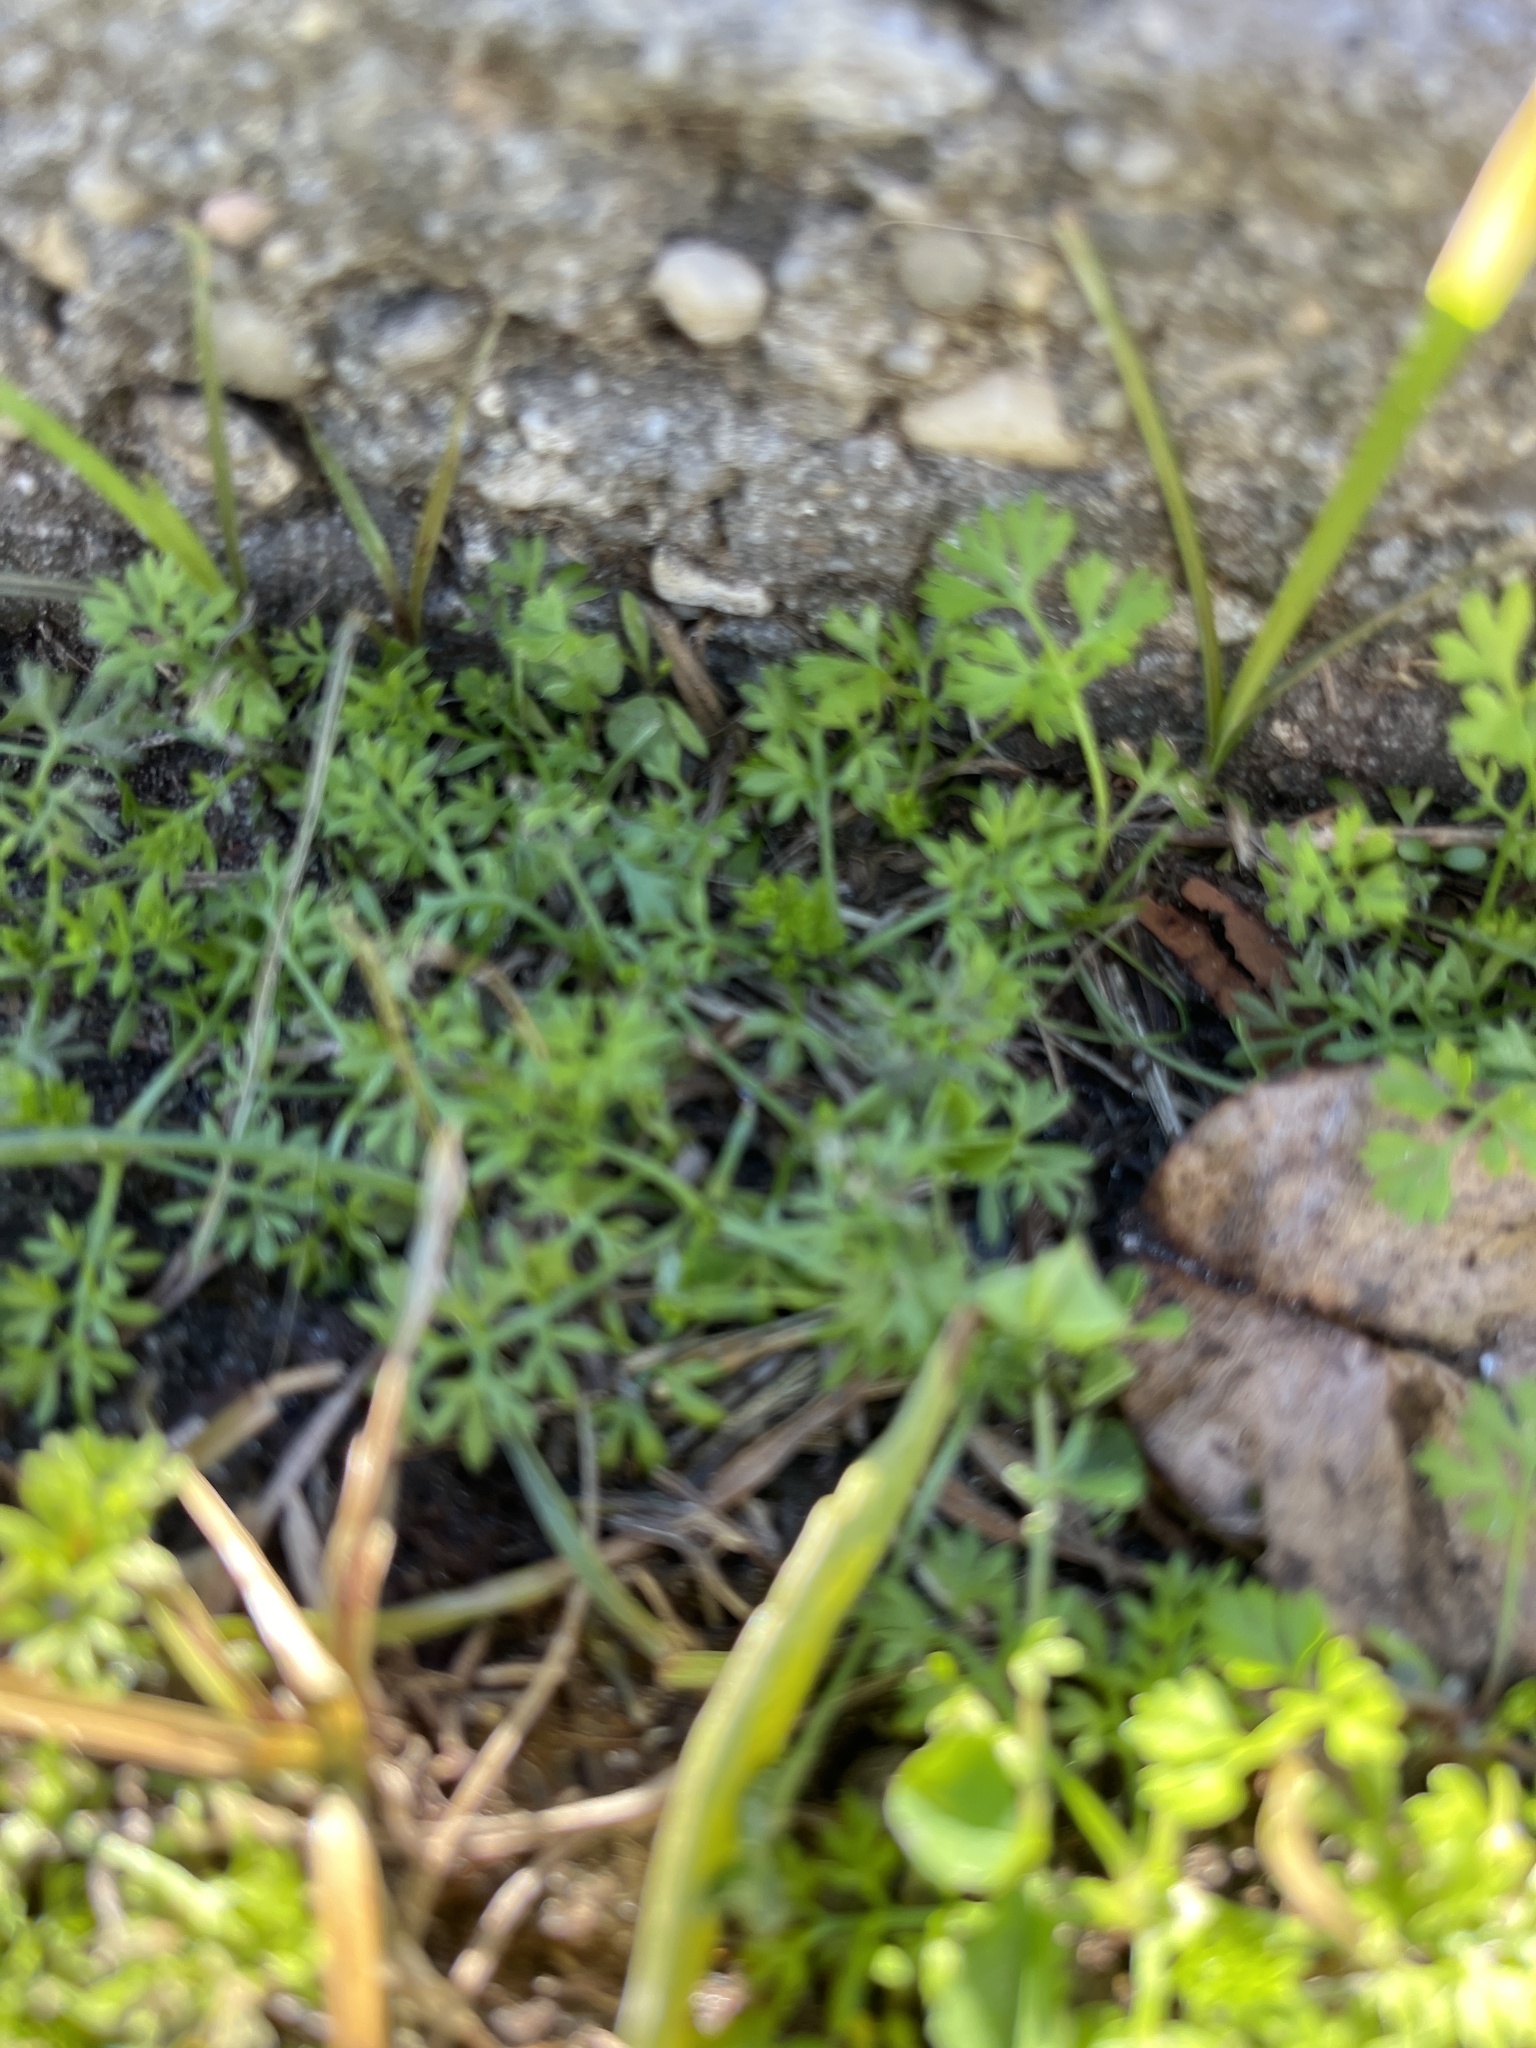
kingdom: Plantae
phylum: Tracheophyta
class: Magnoliopsida
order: Asterales
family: Asteraceae
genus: Soliva
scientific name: Soliva sessilis
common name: Field burrweed
